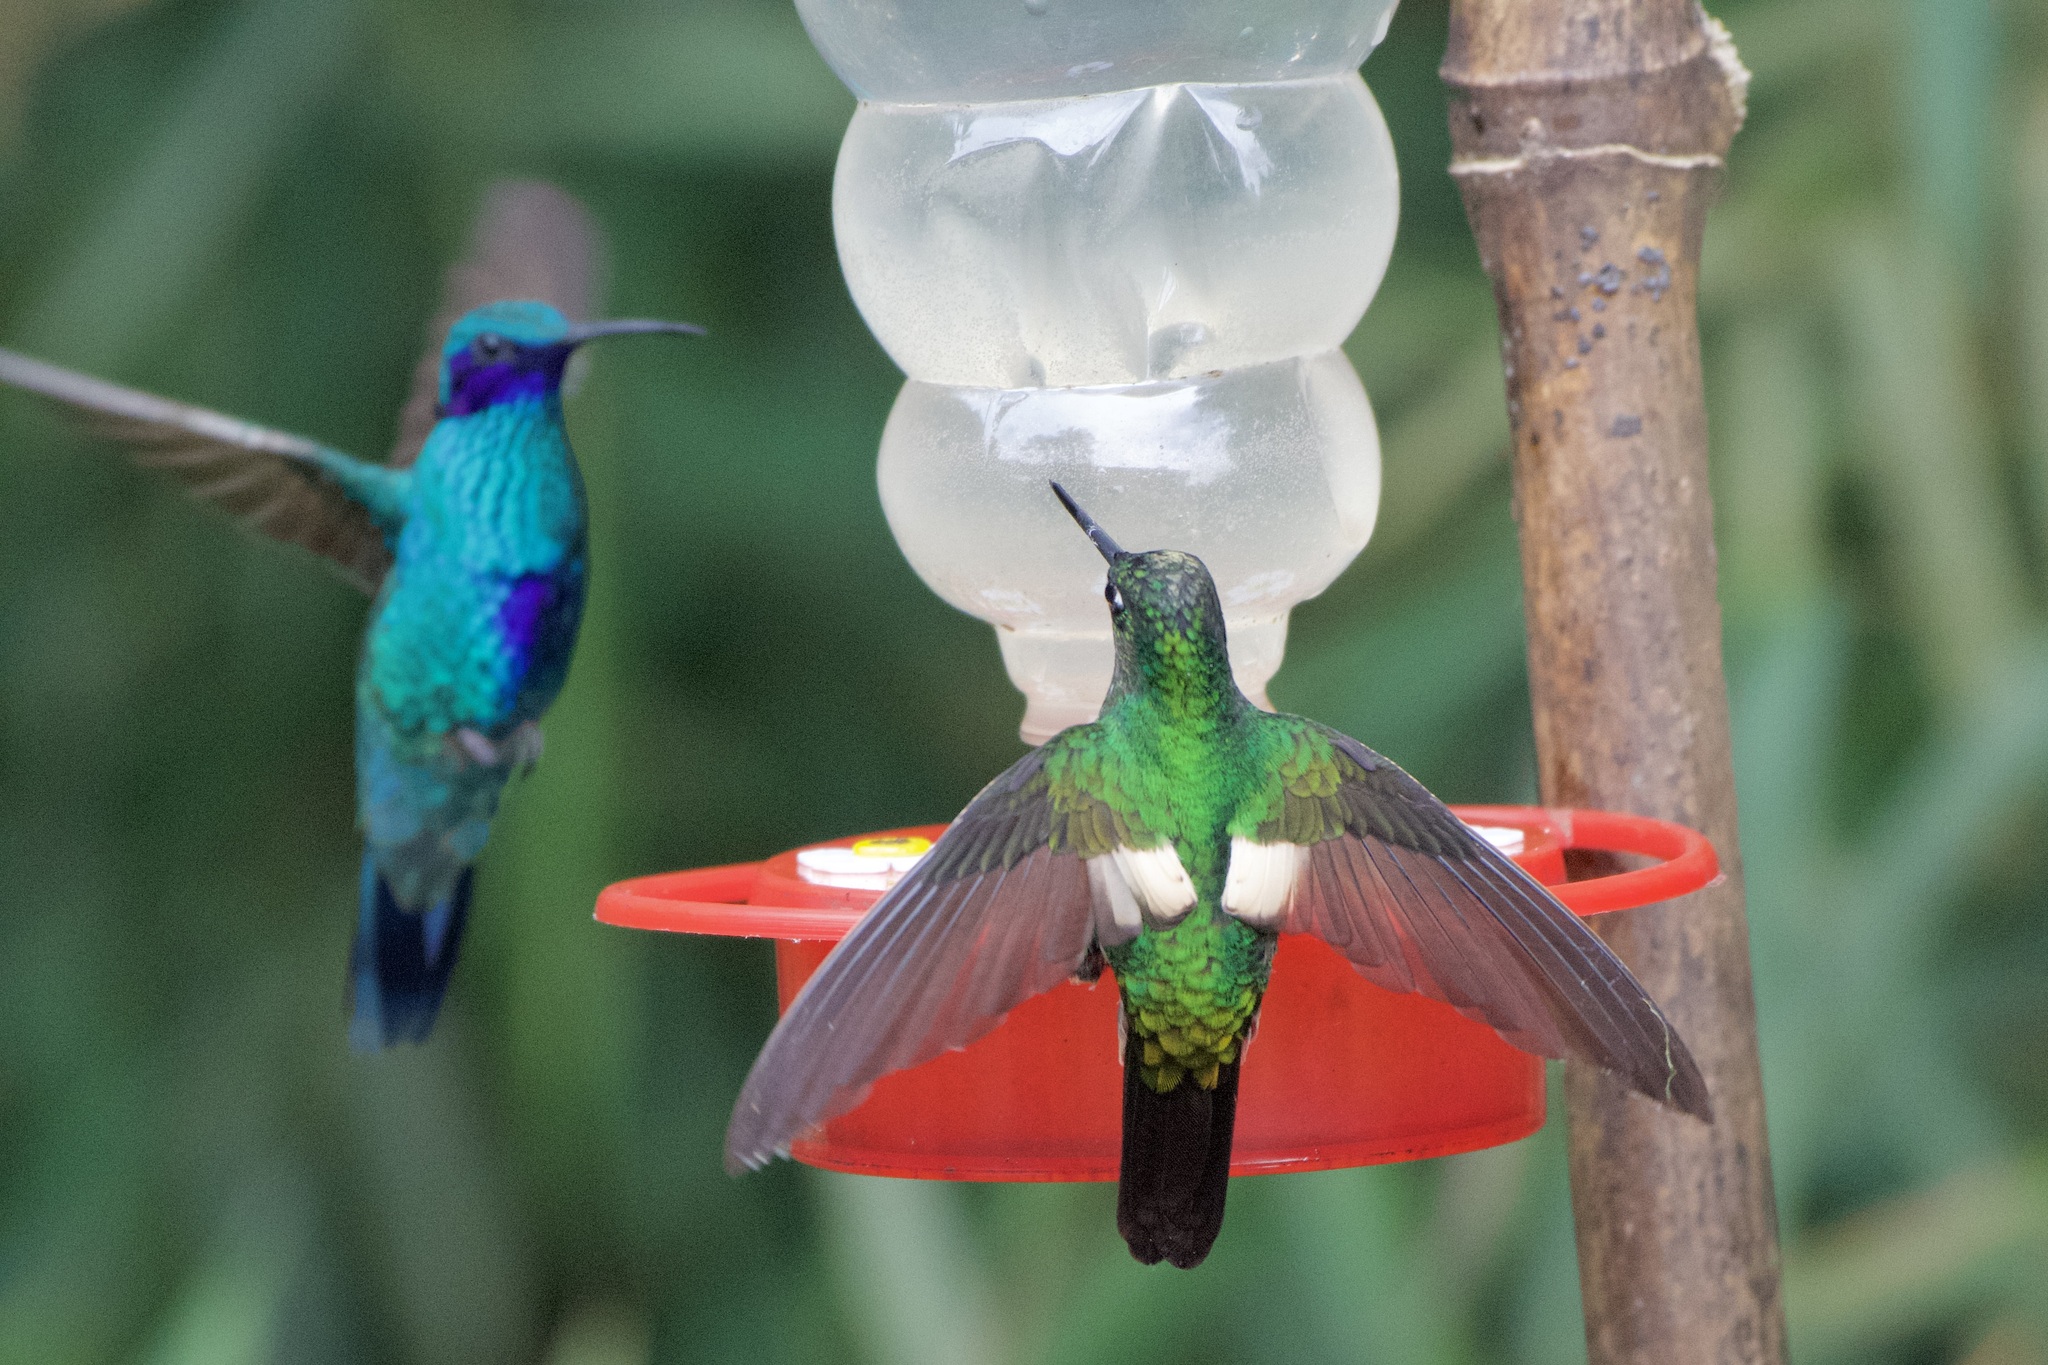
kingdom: Animalia
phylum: Chordata
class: Aves
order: Apodiformes
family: Trochilidae
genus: Coeligena
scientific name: Coeligena lutetiae
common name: Buff-winged starfrontlet
